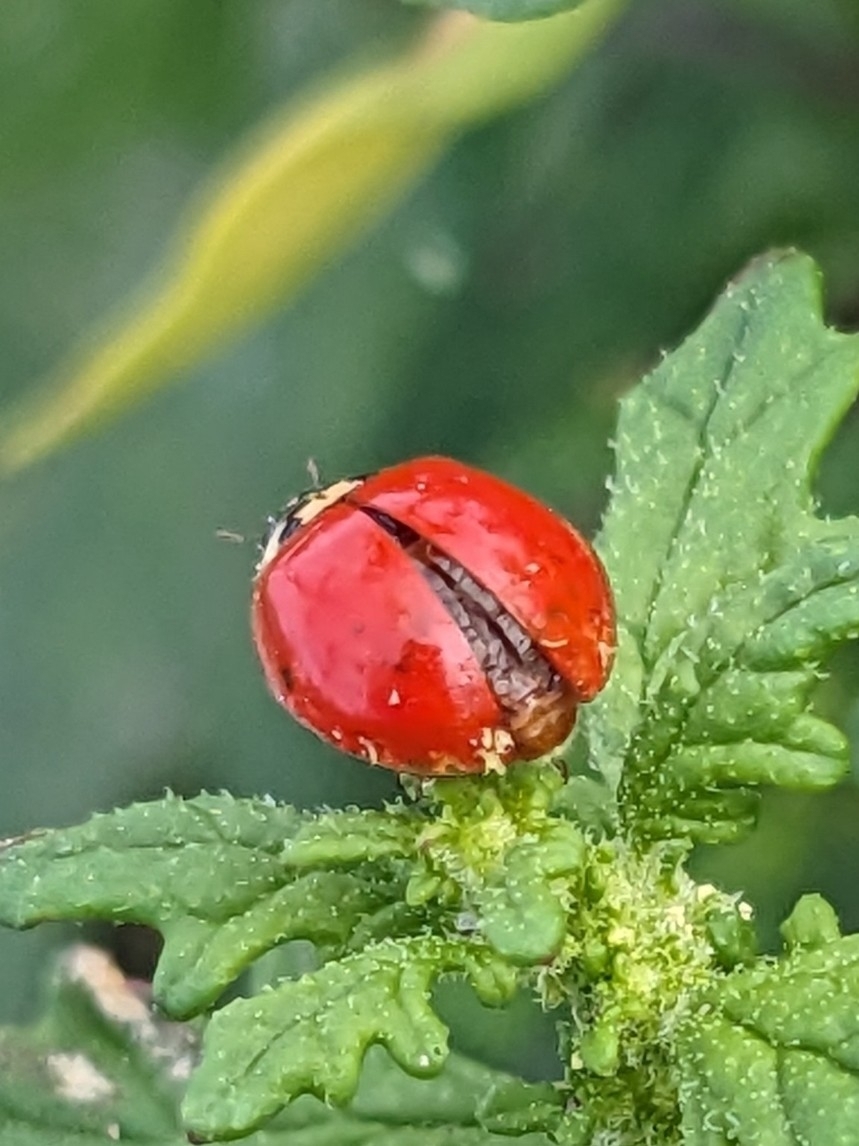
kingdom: Fungi
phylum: Ascomycota
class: Laboulbeniomycetes
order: Laboulbeniales
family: Laboulbeniaceae
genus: Hesperomyces
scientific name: Hesperomyces harmoniae
